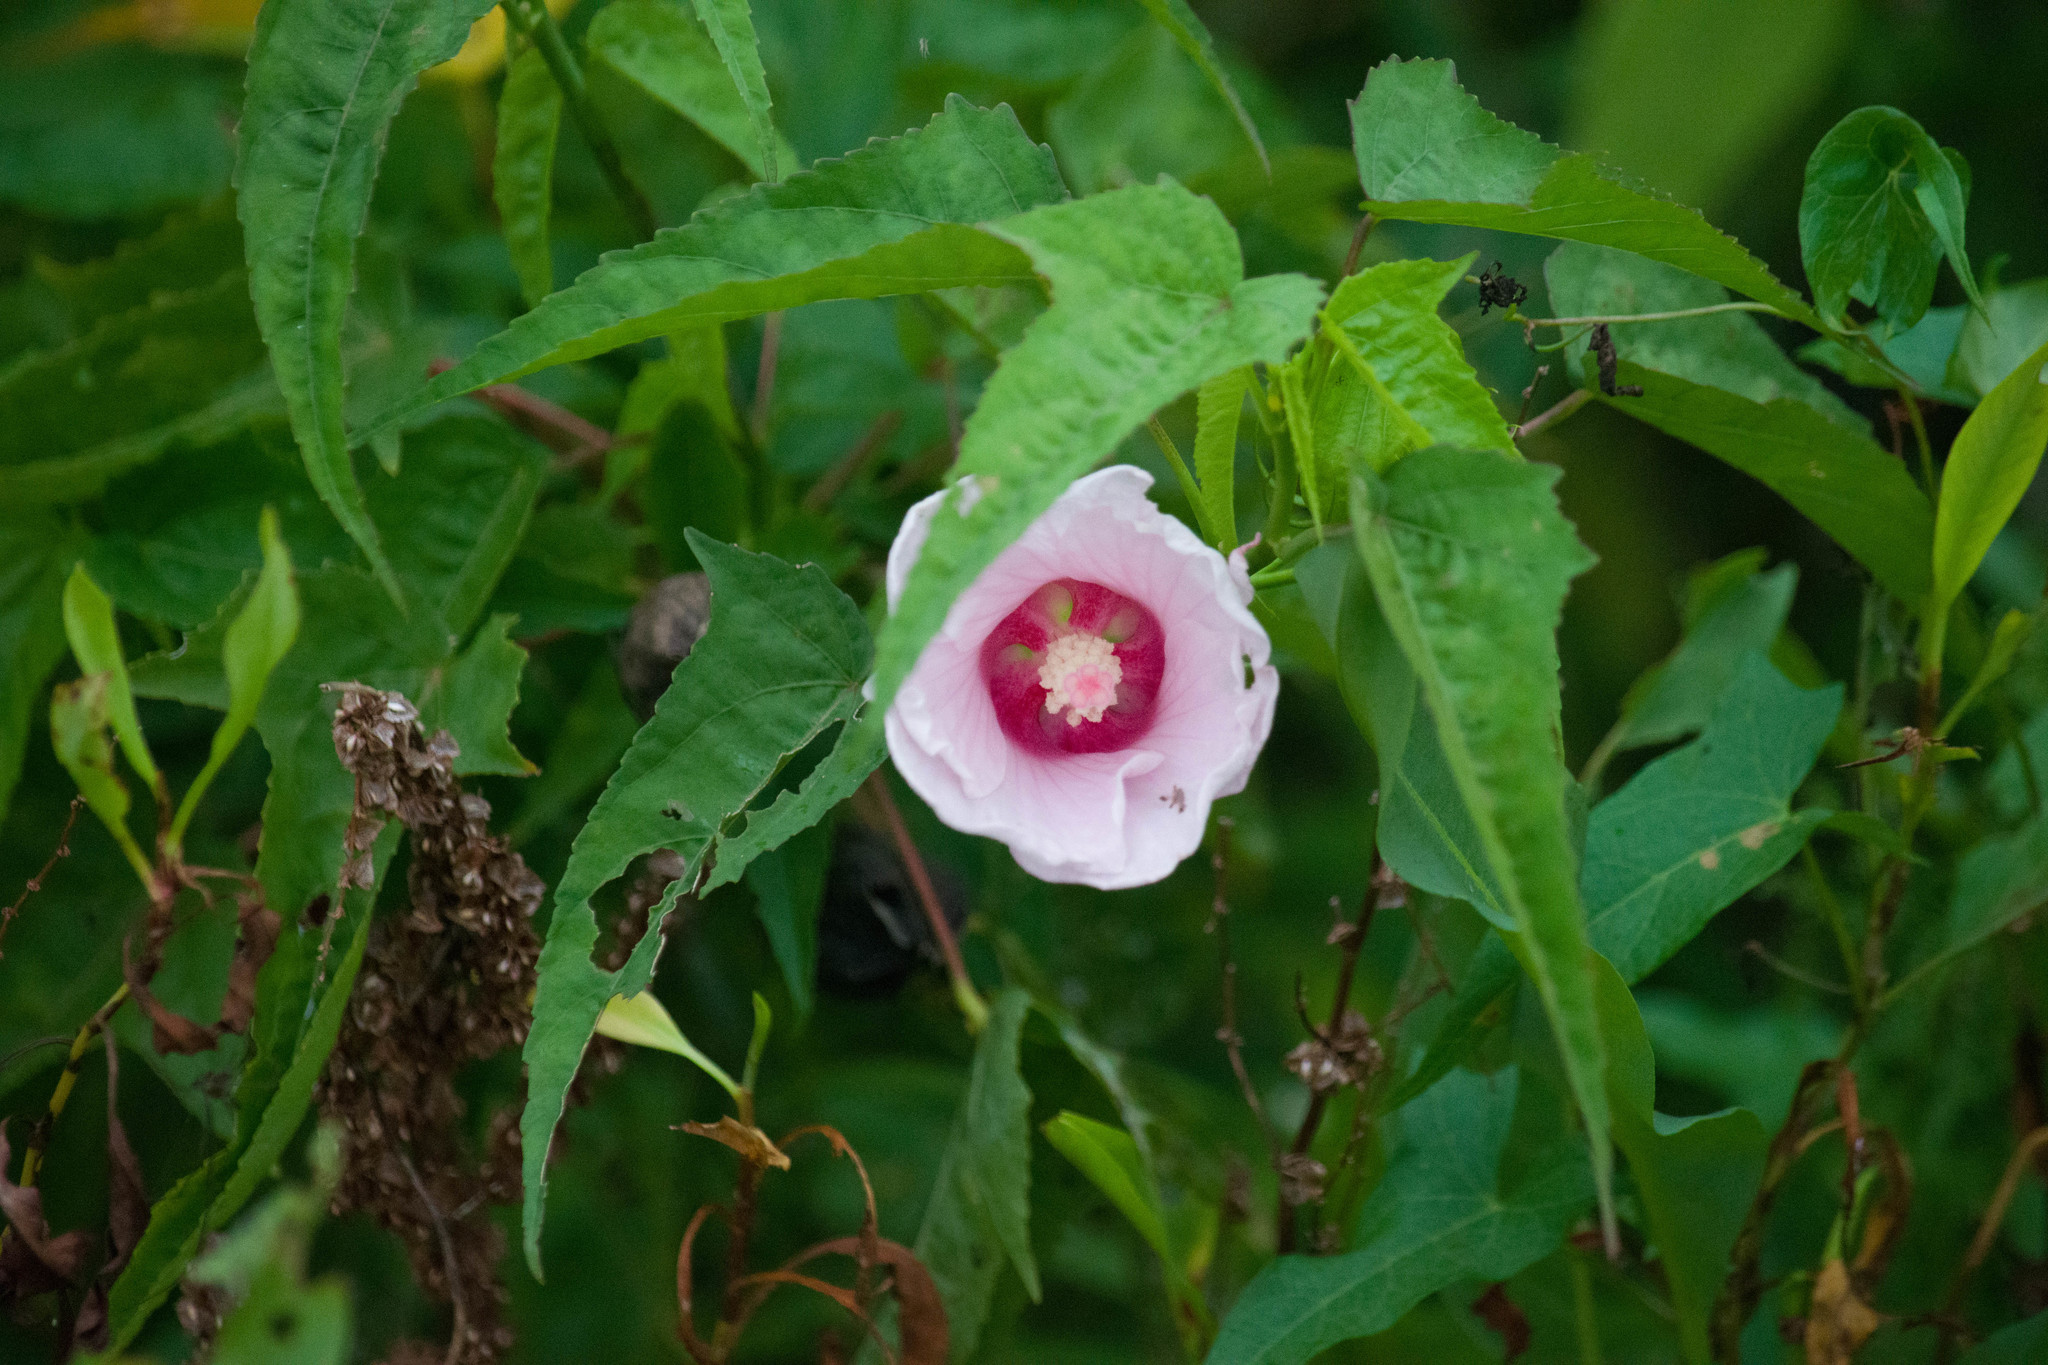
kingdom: Plantae
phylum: Tracheophyta
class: Magnoliopsida
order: Malvales
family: Malvaceae
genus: Hibiscus
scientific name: Hibiscus laevis
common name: Scarlet rose-mallow
